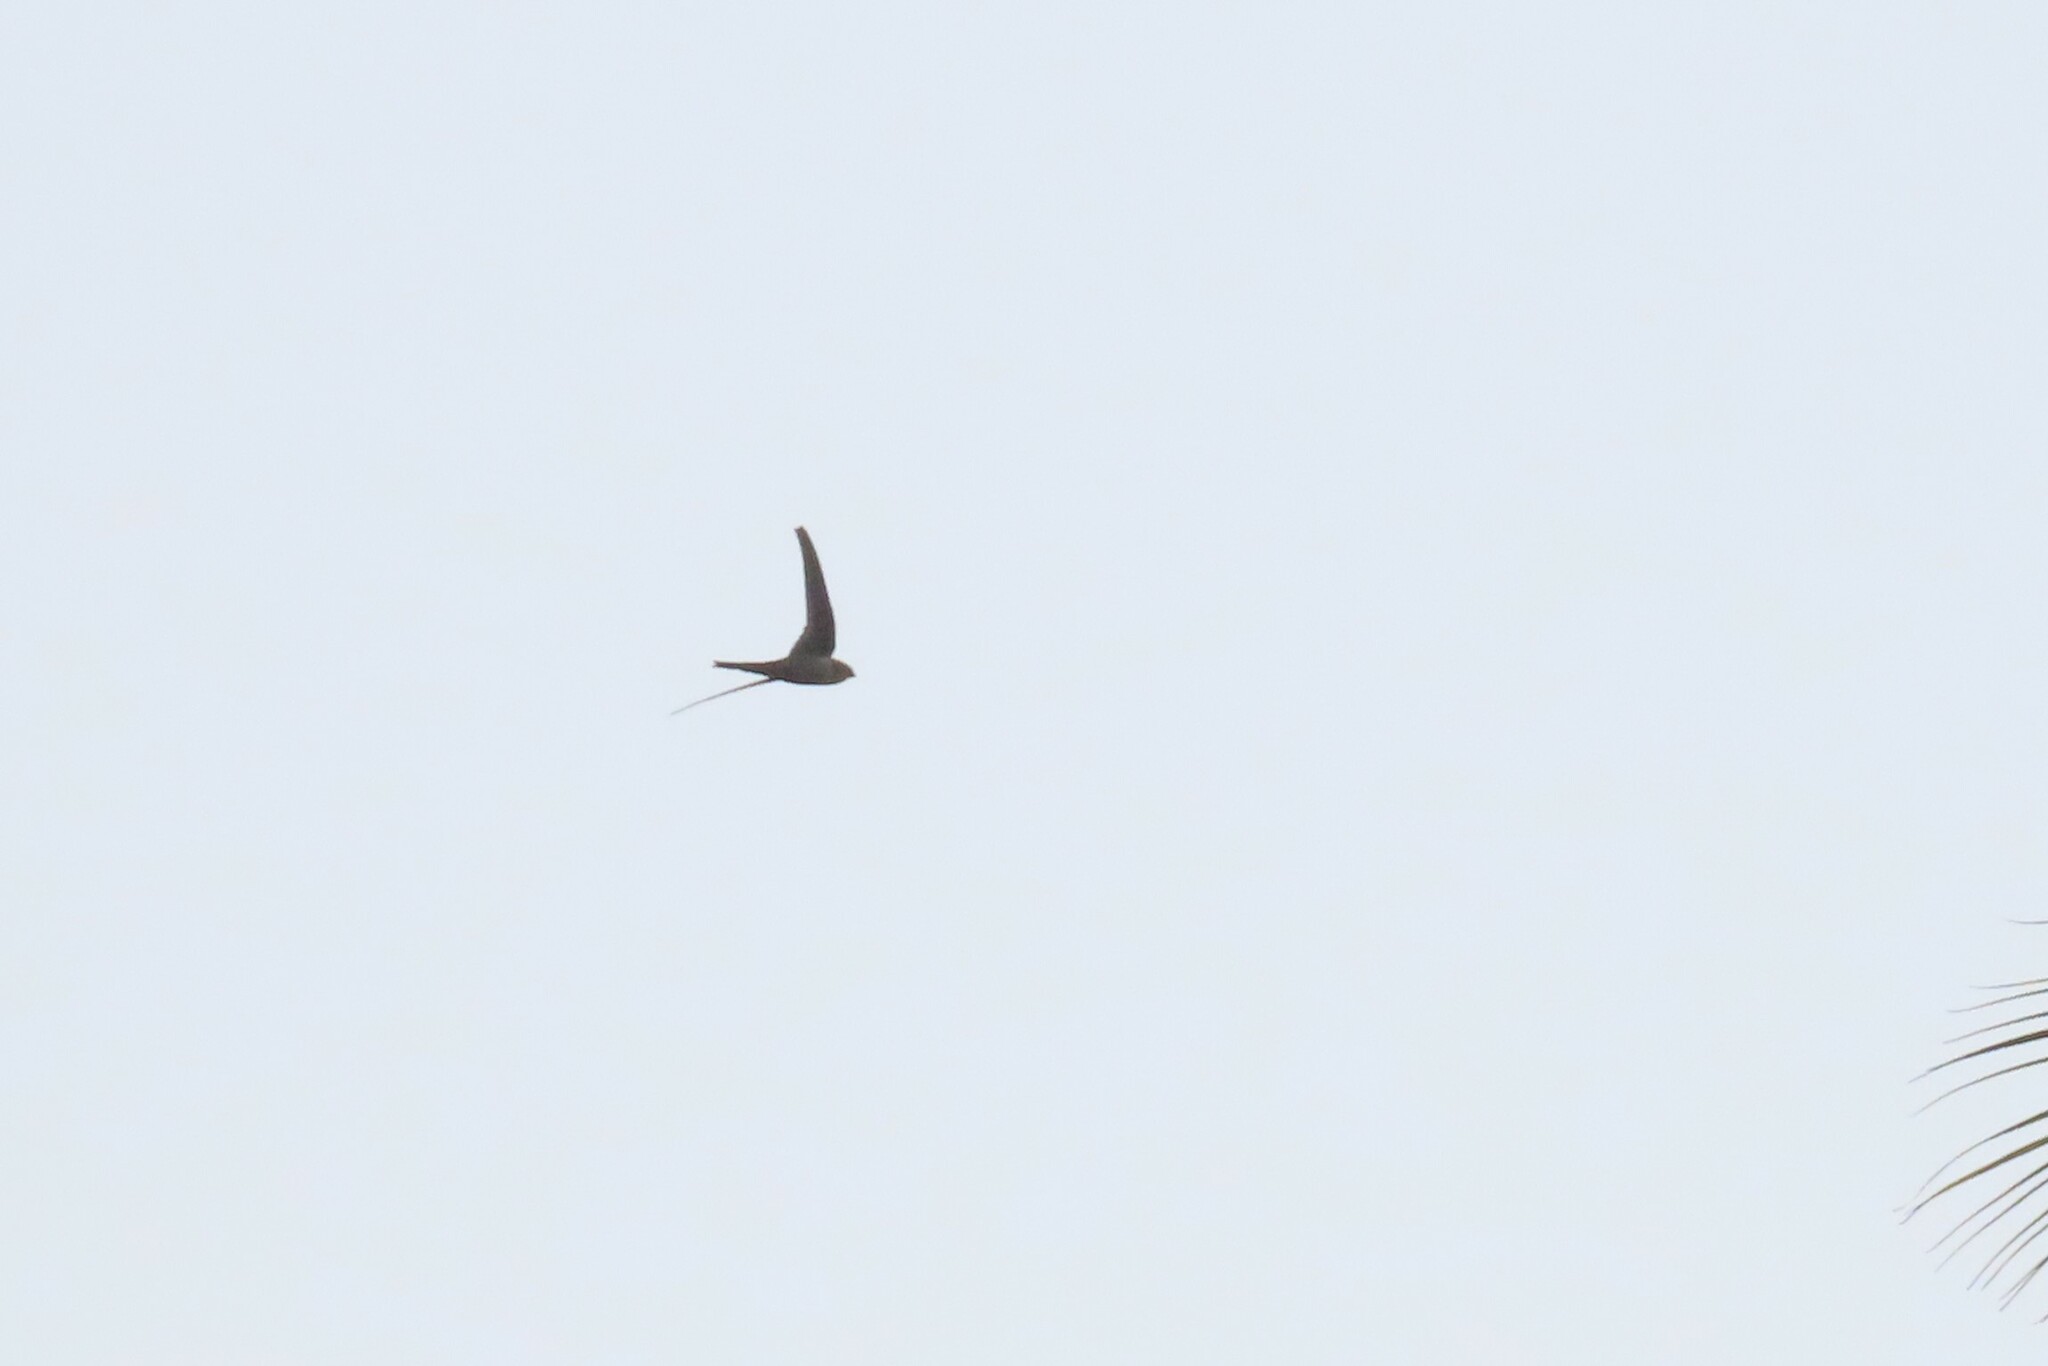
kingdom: Animalia
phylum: Chordata
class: Aves
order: Apodiformes
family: Apodidae
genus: Cypsiurus
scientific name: Cypsiurus balasiensis
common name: Asian palm swift
